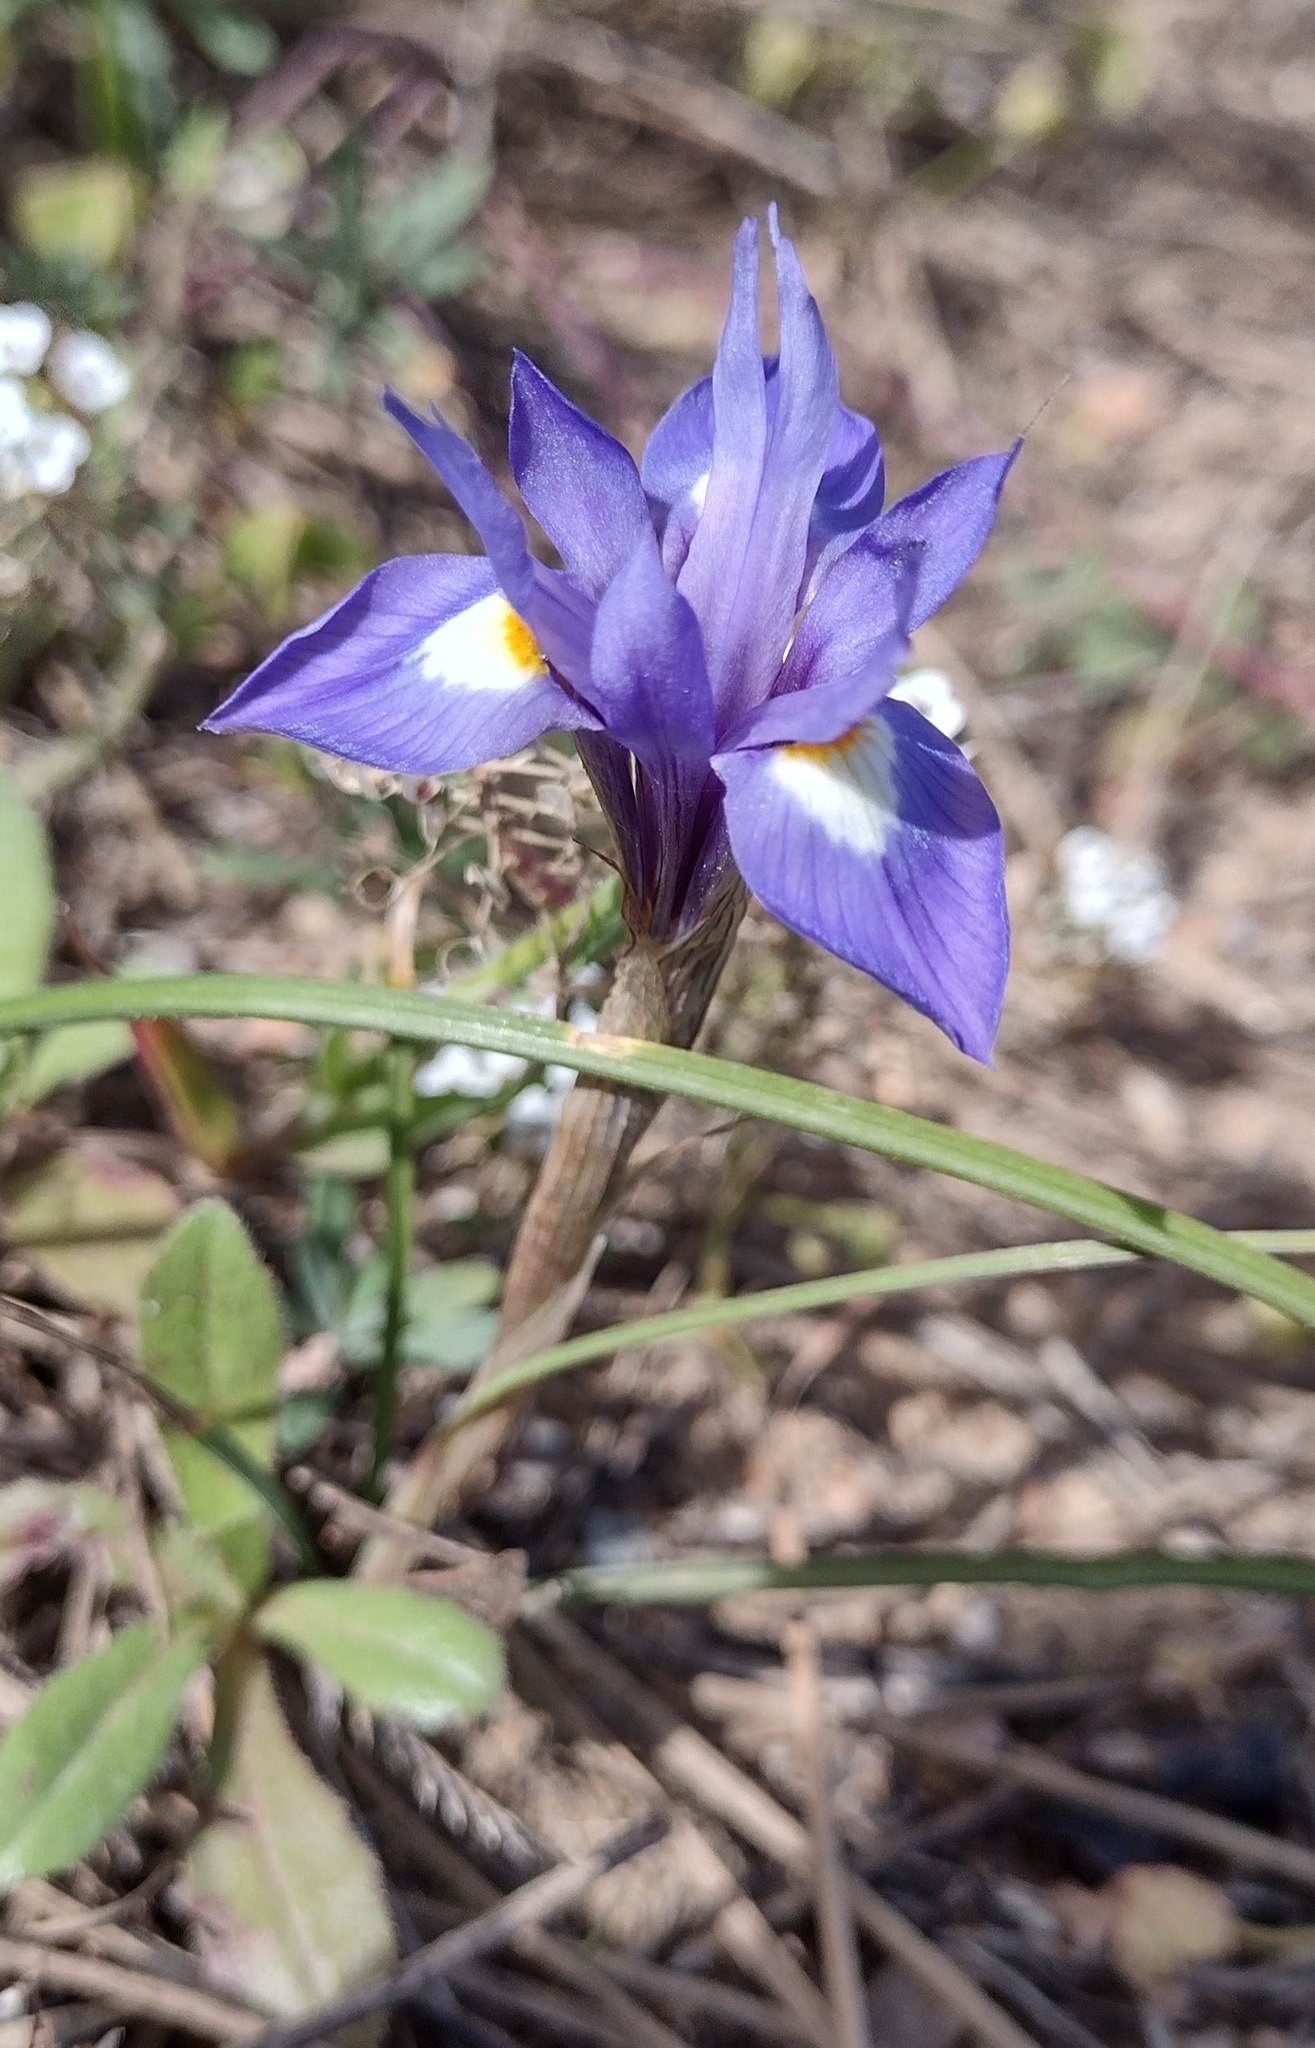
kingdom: Plantae
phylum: Tracheophyta
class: Liliopsida
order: Asparagales
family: Iridaceae
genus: Moraea
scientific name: Moraea sisyrinchium
